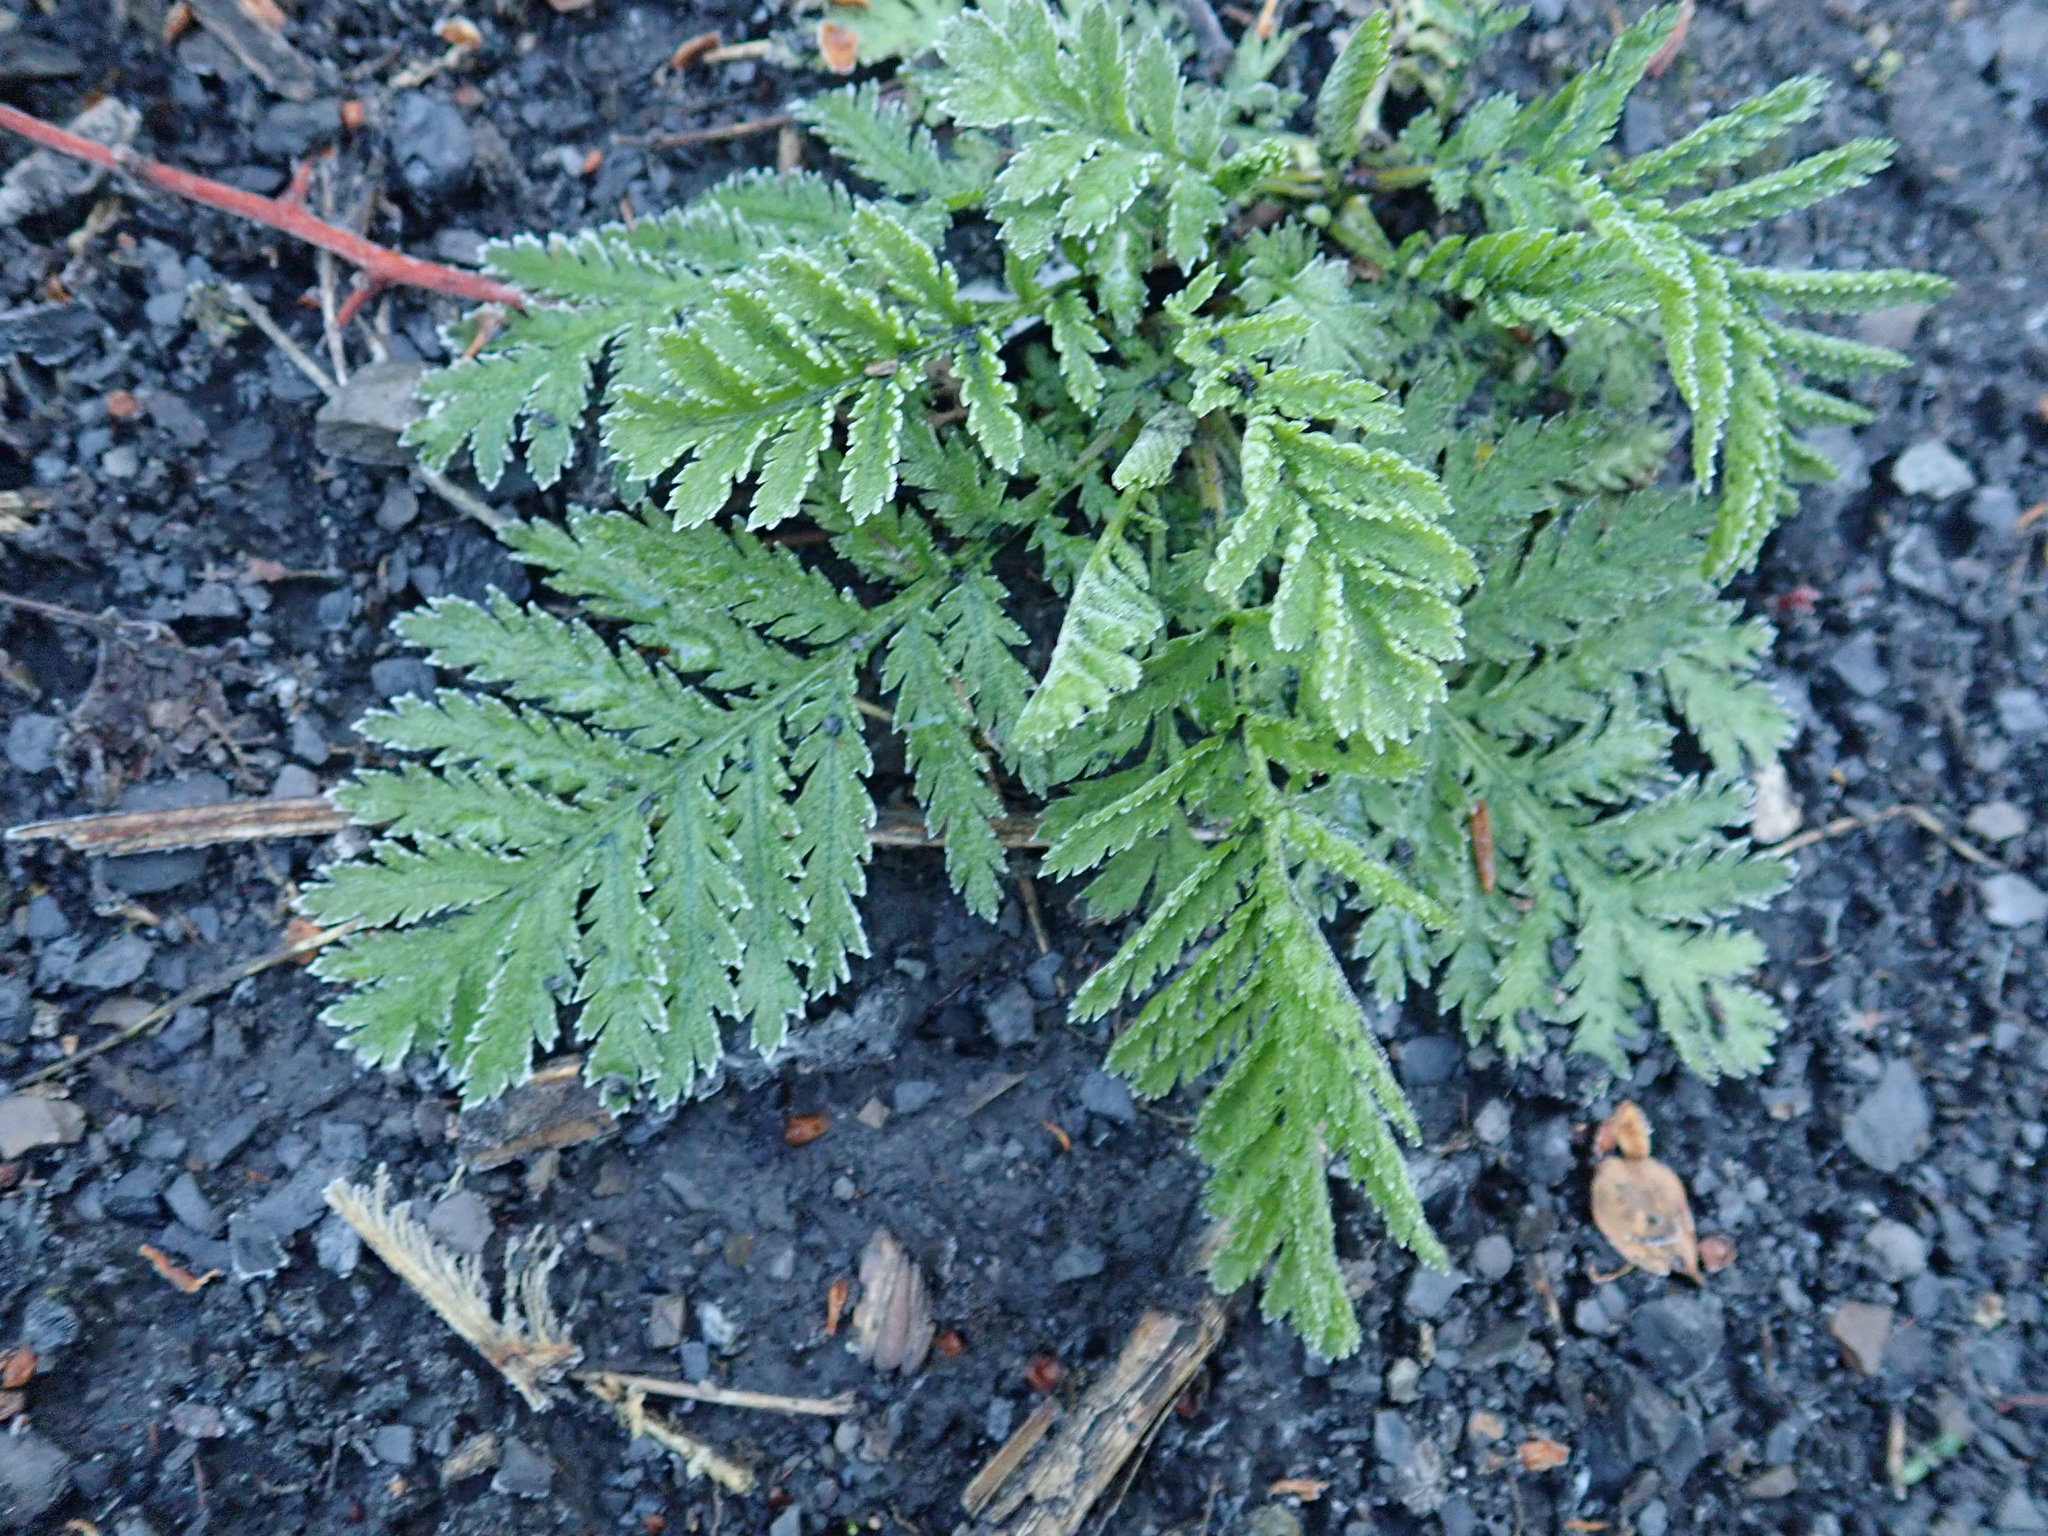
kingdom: Plantae
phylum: Tracheophyta
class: Magnoliopsida
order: Asterales
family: Asteraceae
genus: Tanacetum
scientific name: Tanacetum vulgare
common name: Common tansy
